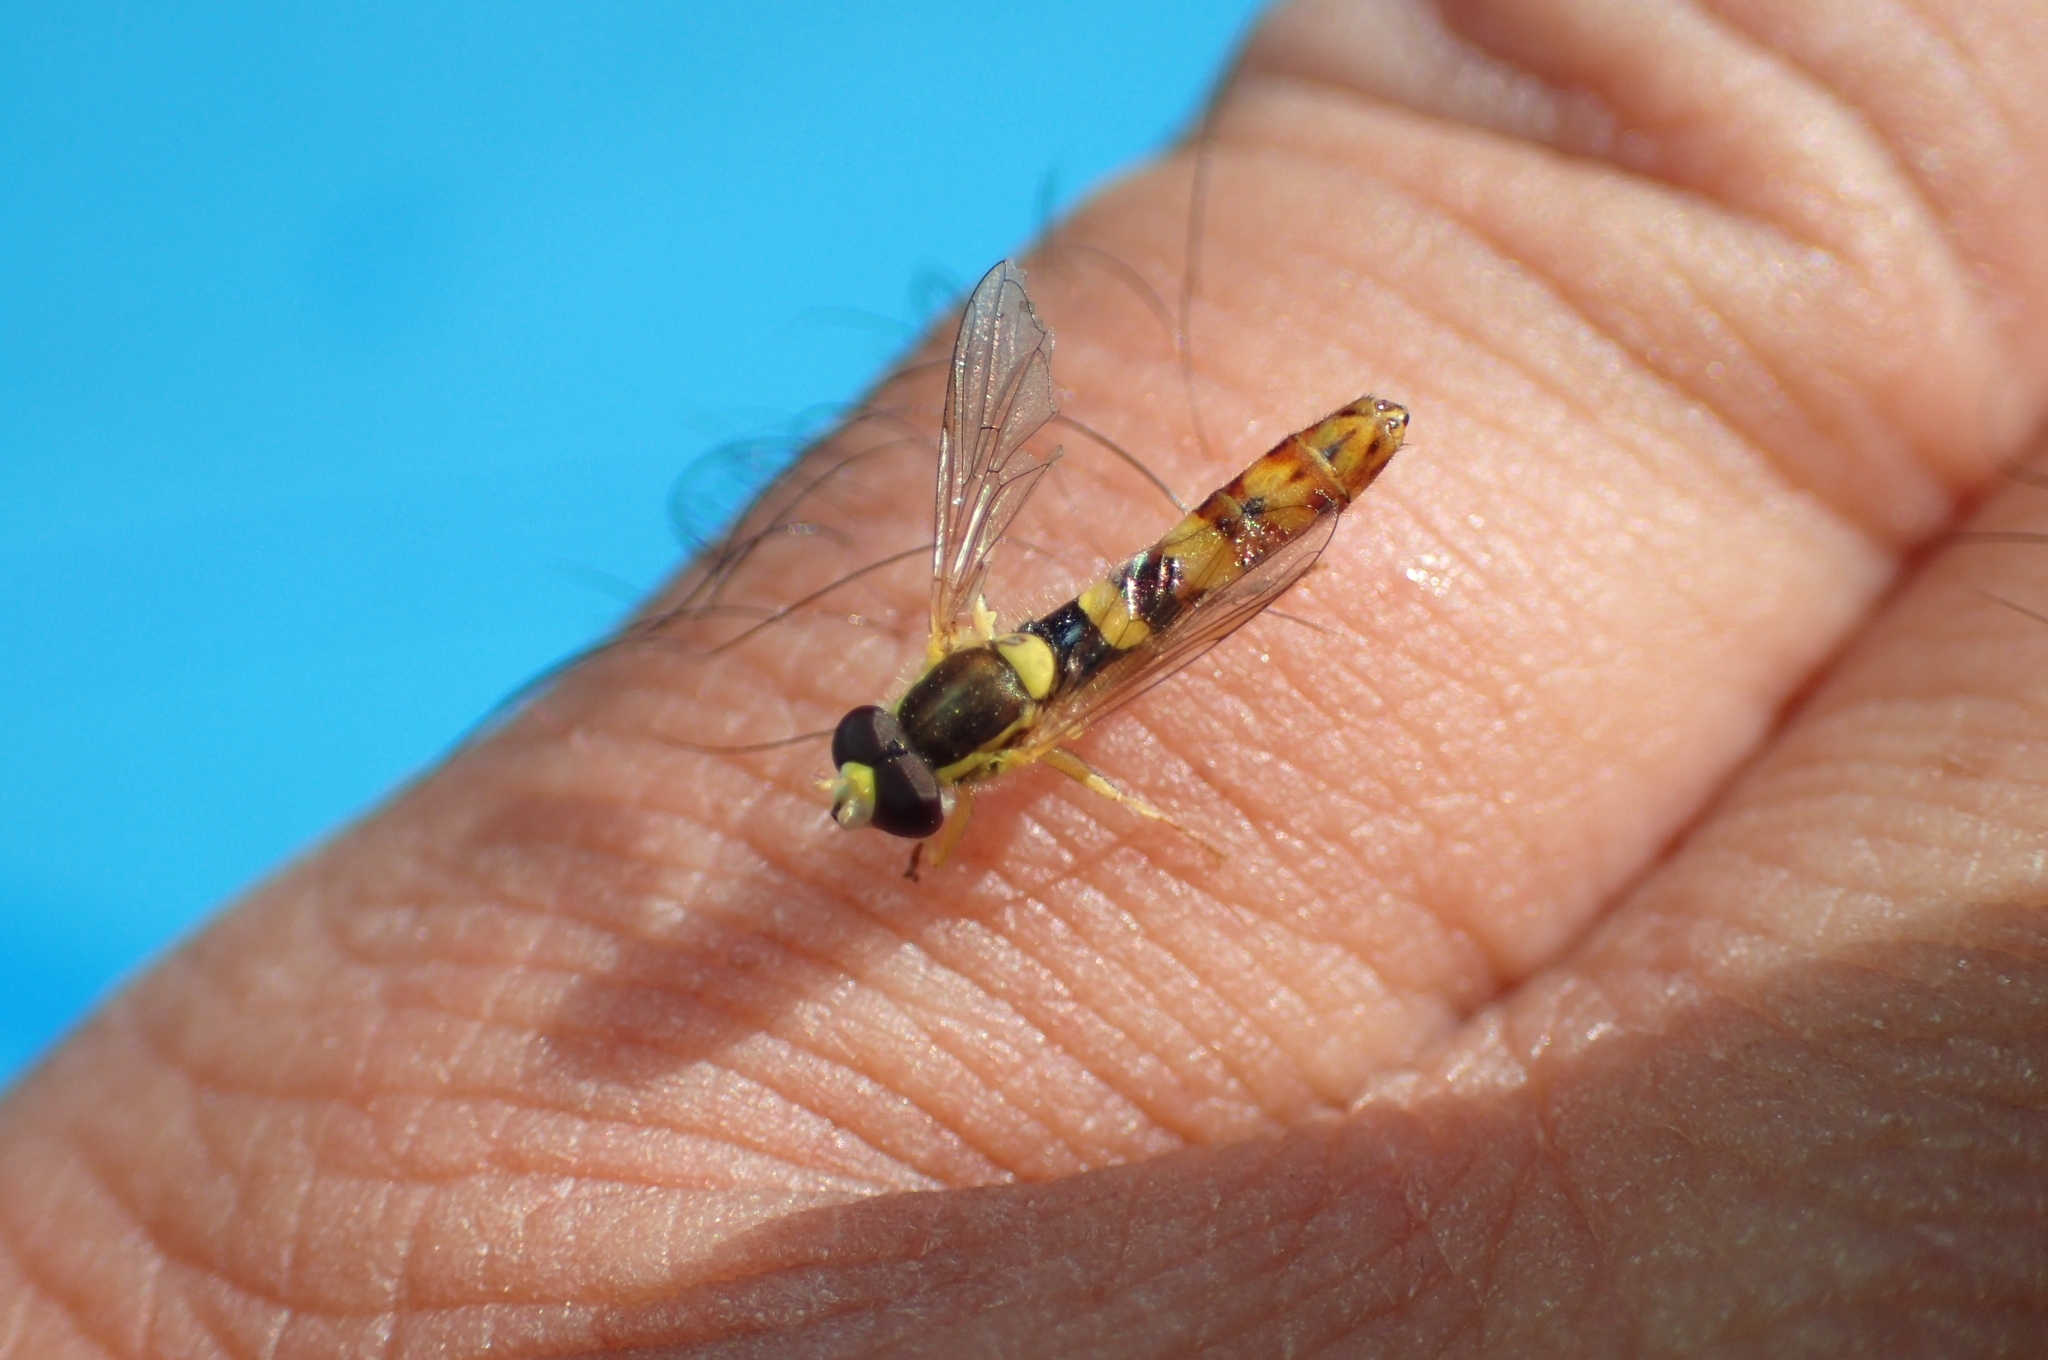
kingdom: Animalia
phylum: Arthropoda
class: Insecta
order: Diptera
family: Syrphidae
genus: Sphaerophoria
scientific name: Sphaerophoria scripta
